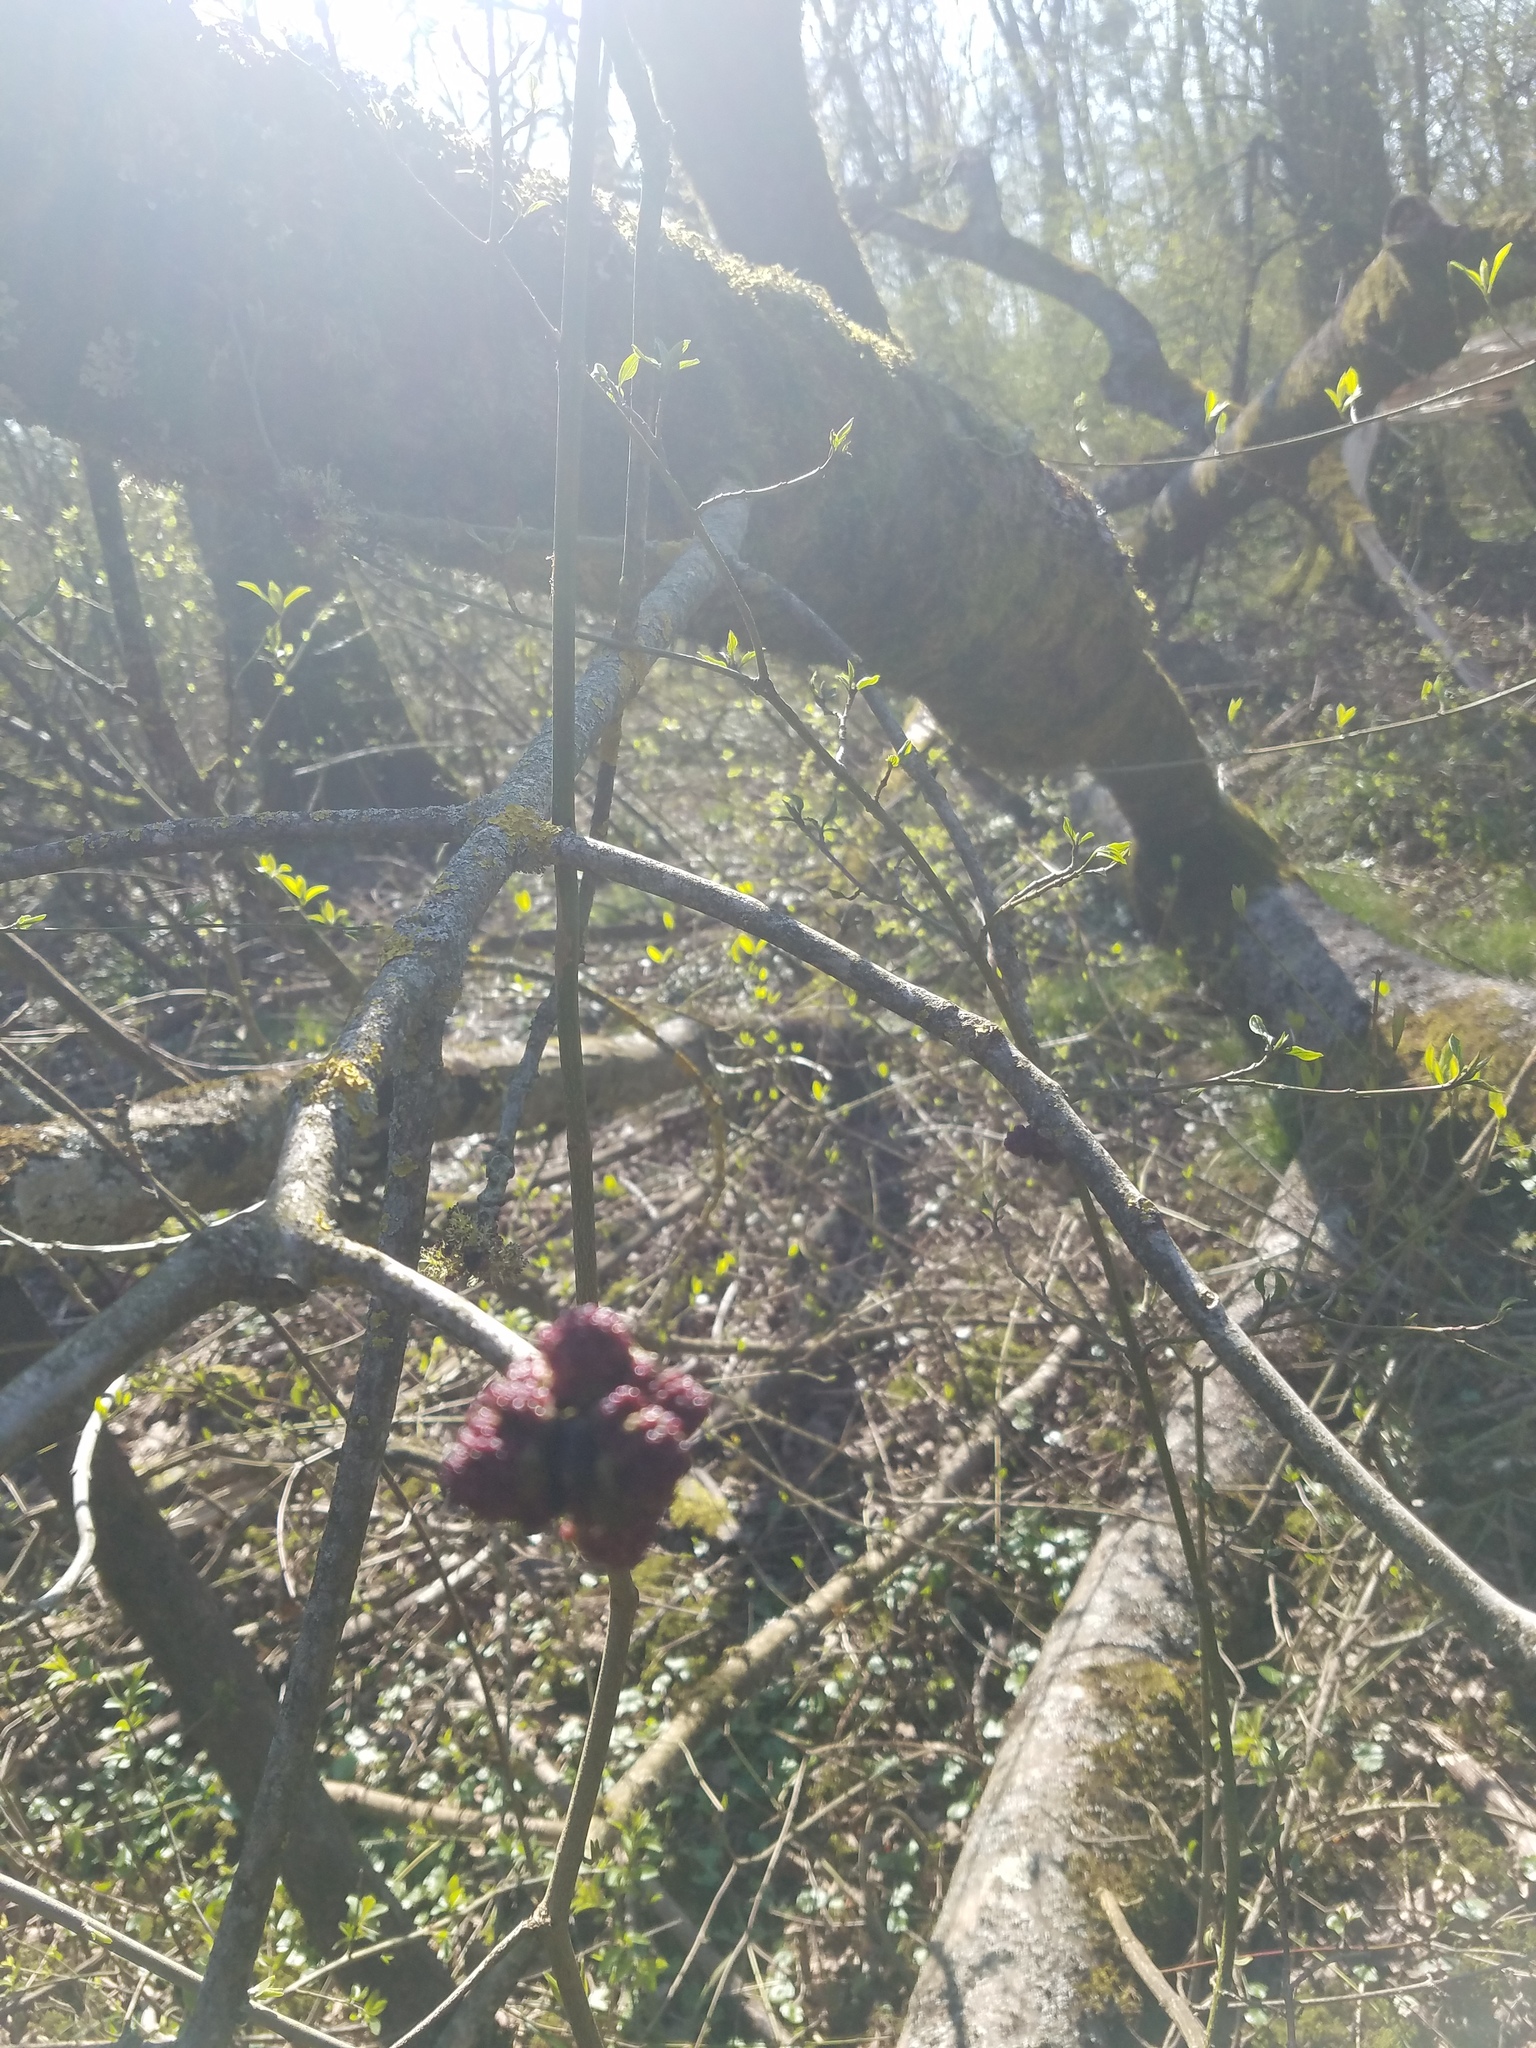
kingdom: Plantae
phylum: Tracheophyta
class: Magnoliopsida
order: Lamiales
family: Oleaceae
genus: Fraxinus
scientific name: Fraxinus excelsior
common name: European ash
